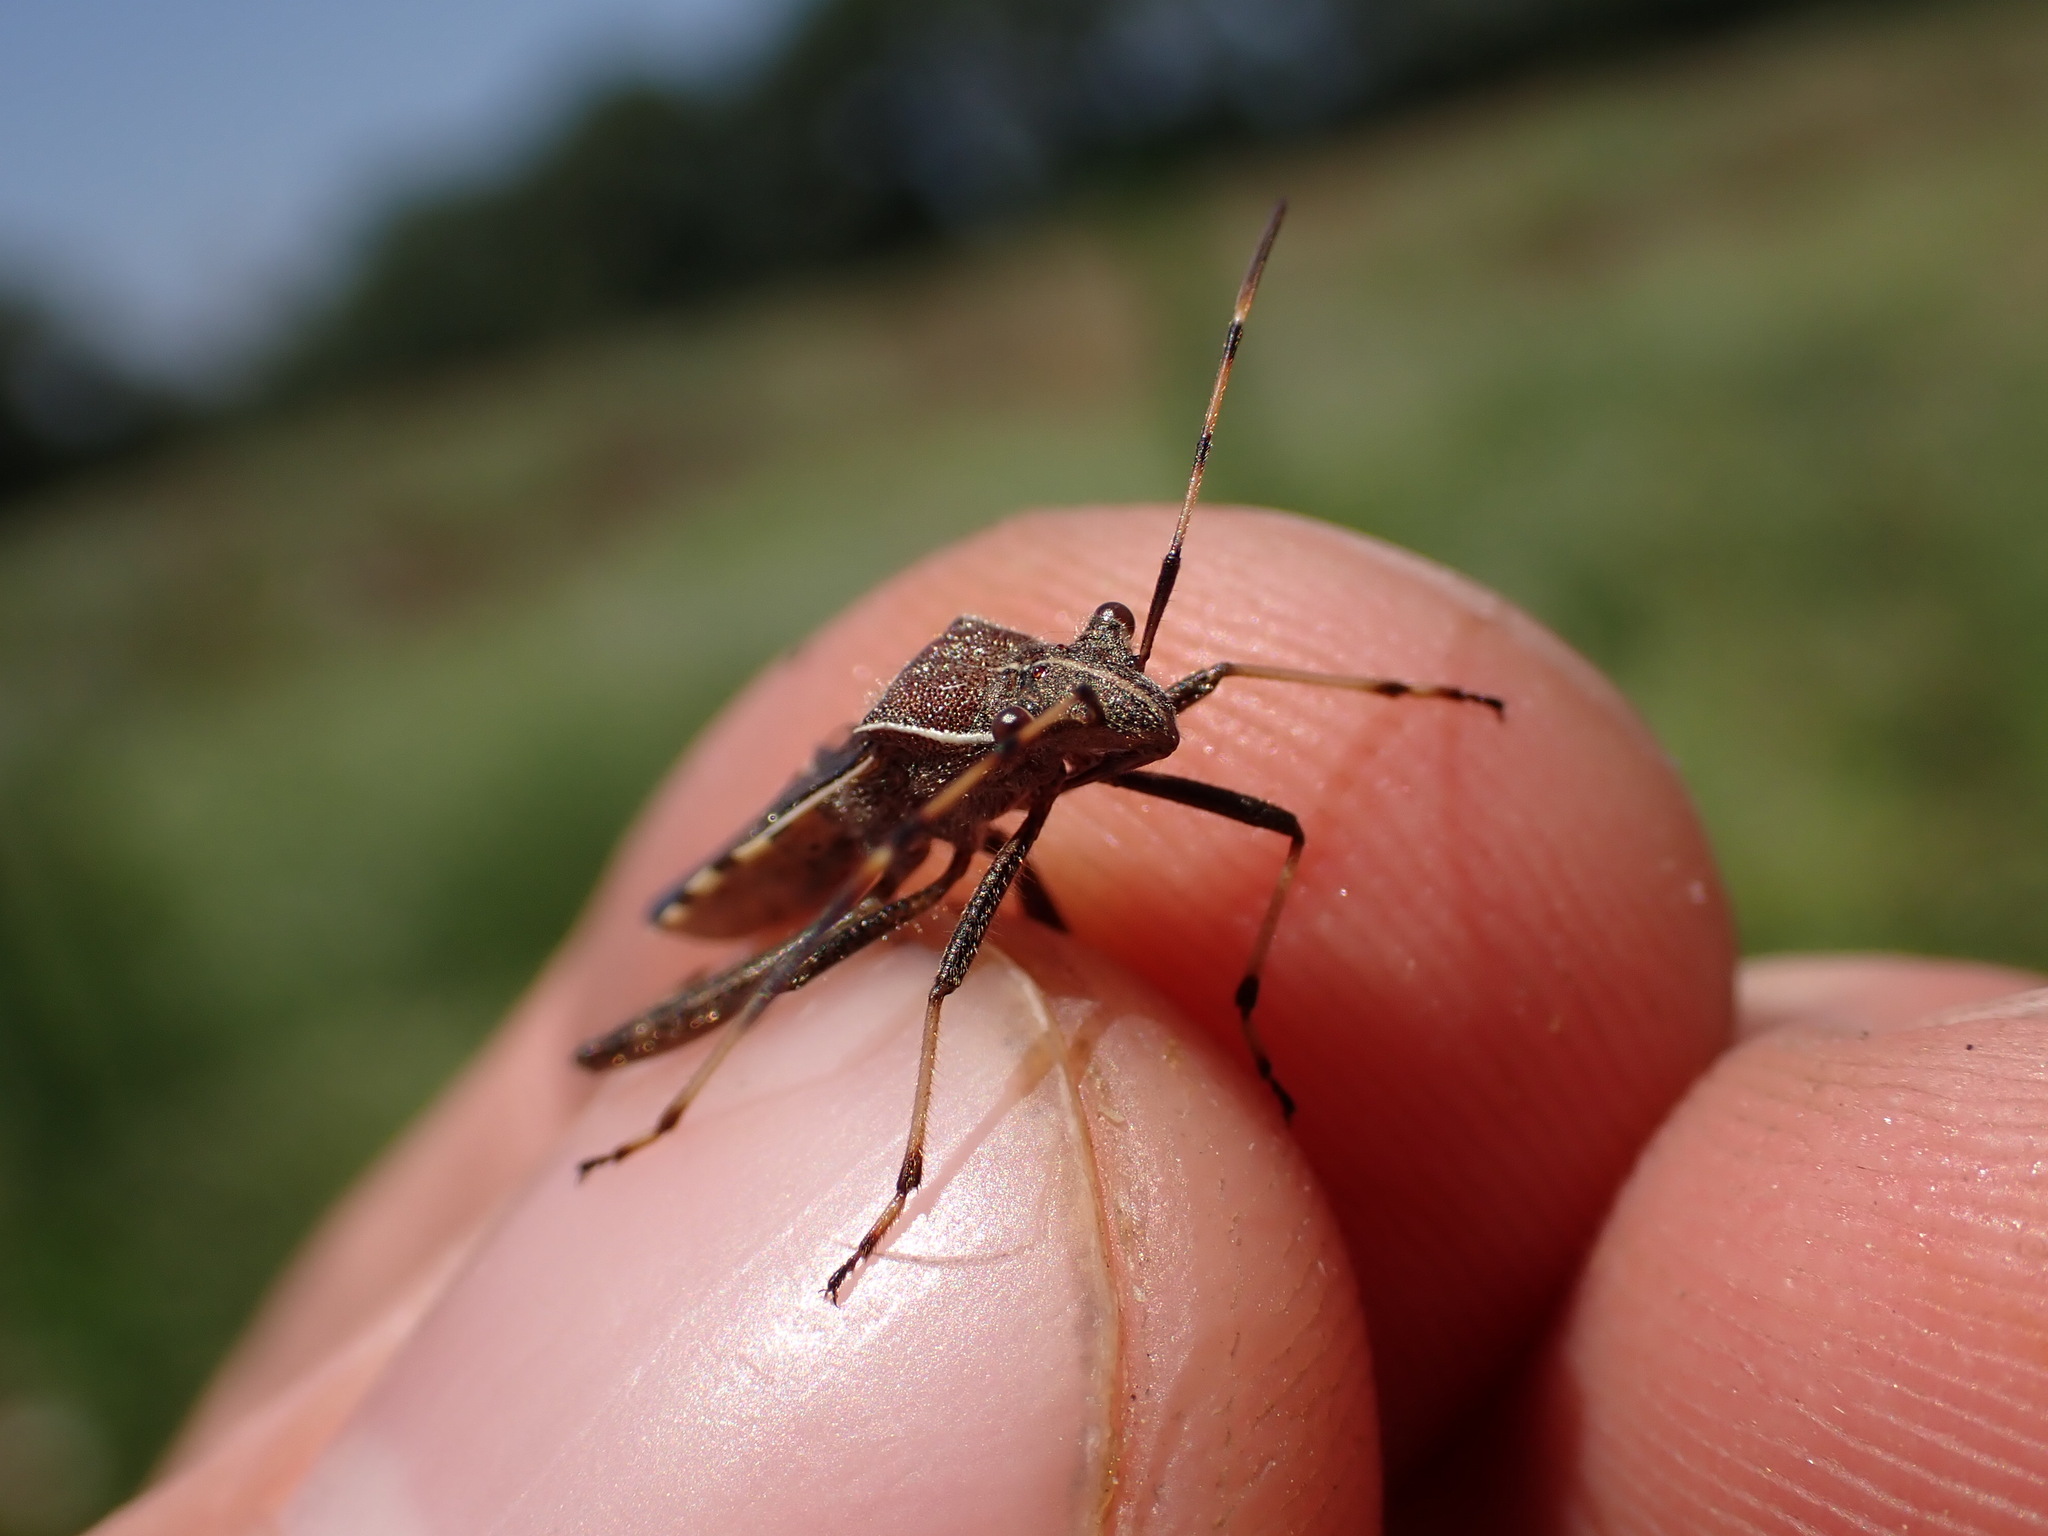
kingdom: Animalia
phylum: Arthropoda
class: Insecta
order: Hemiptera
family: Alydidae
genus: Camptopus
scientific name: Camptopus lateralis
